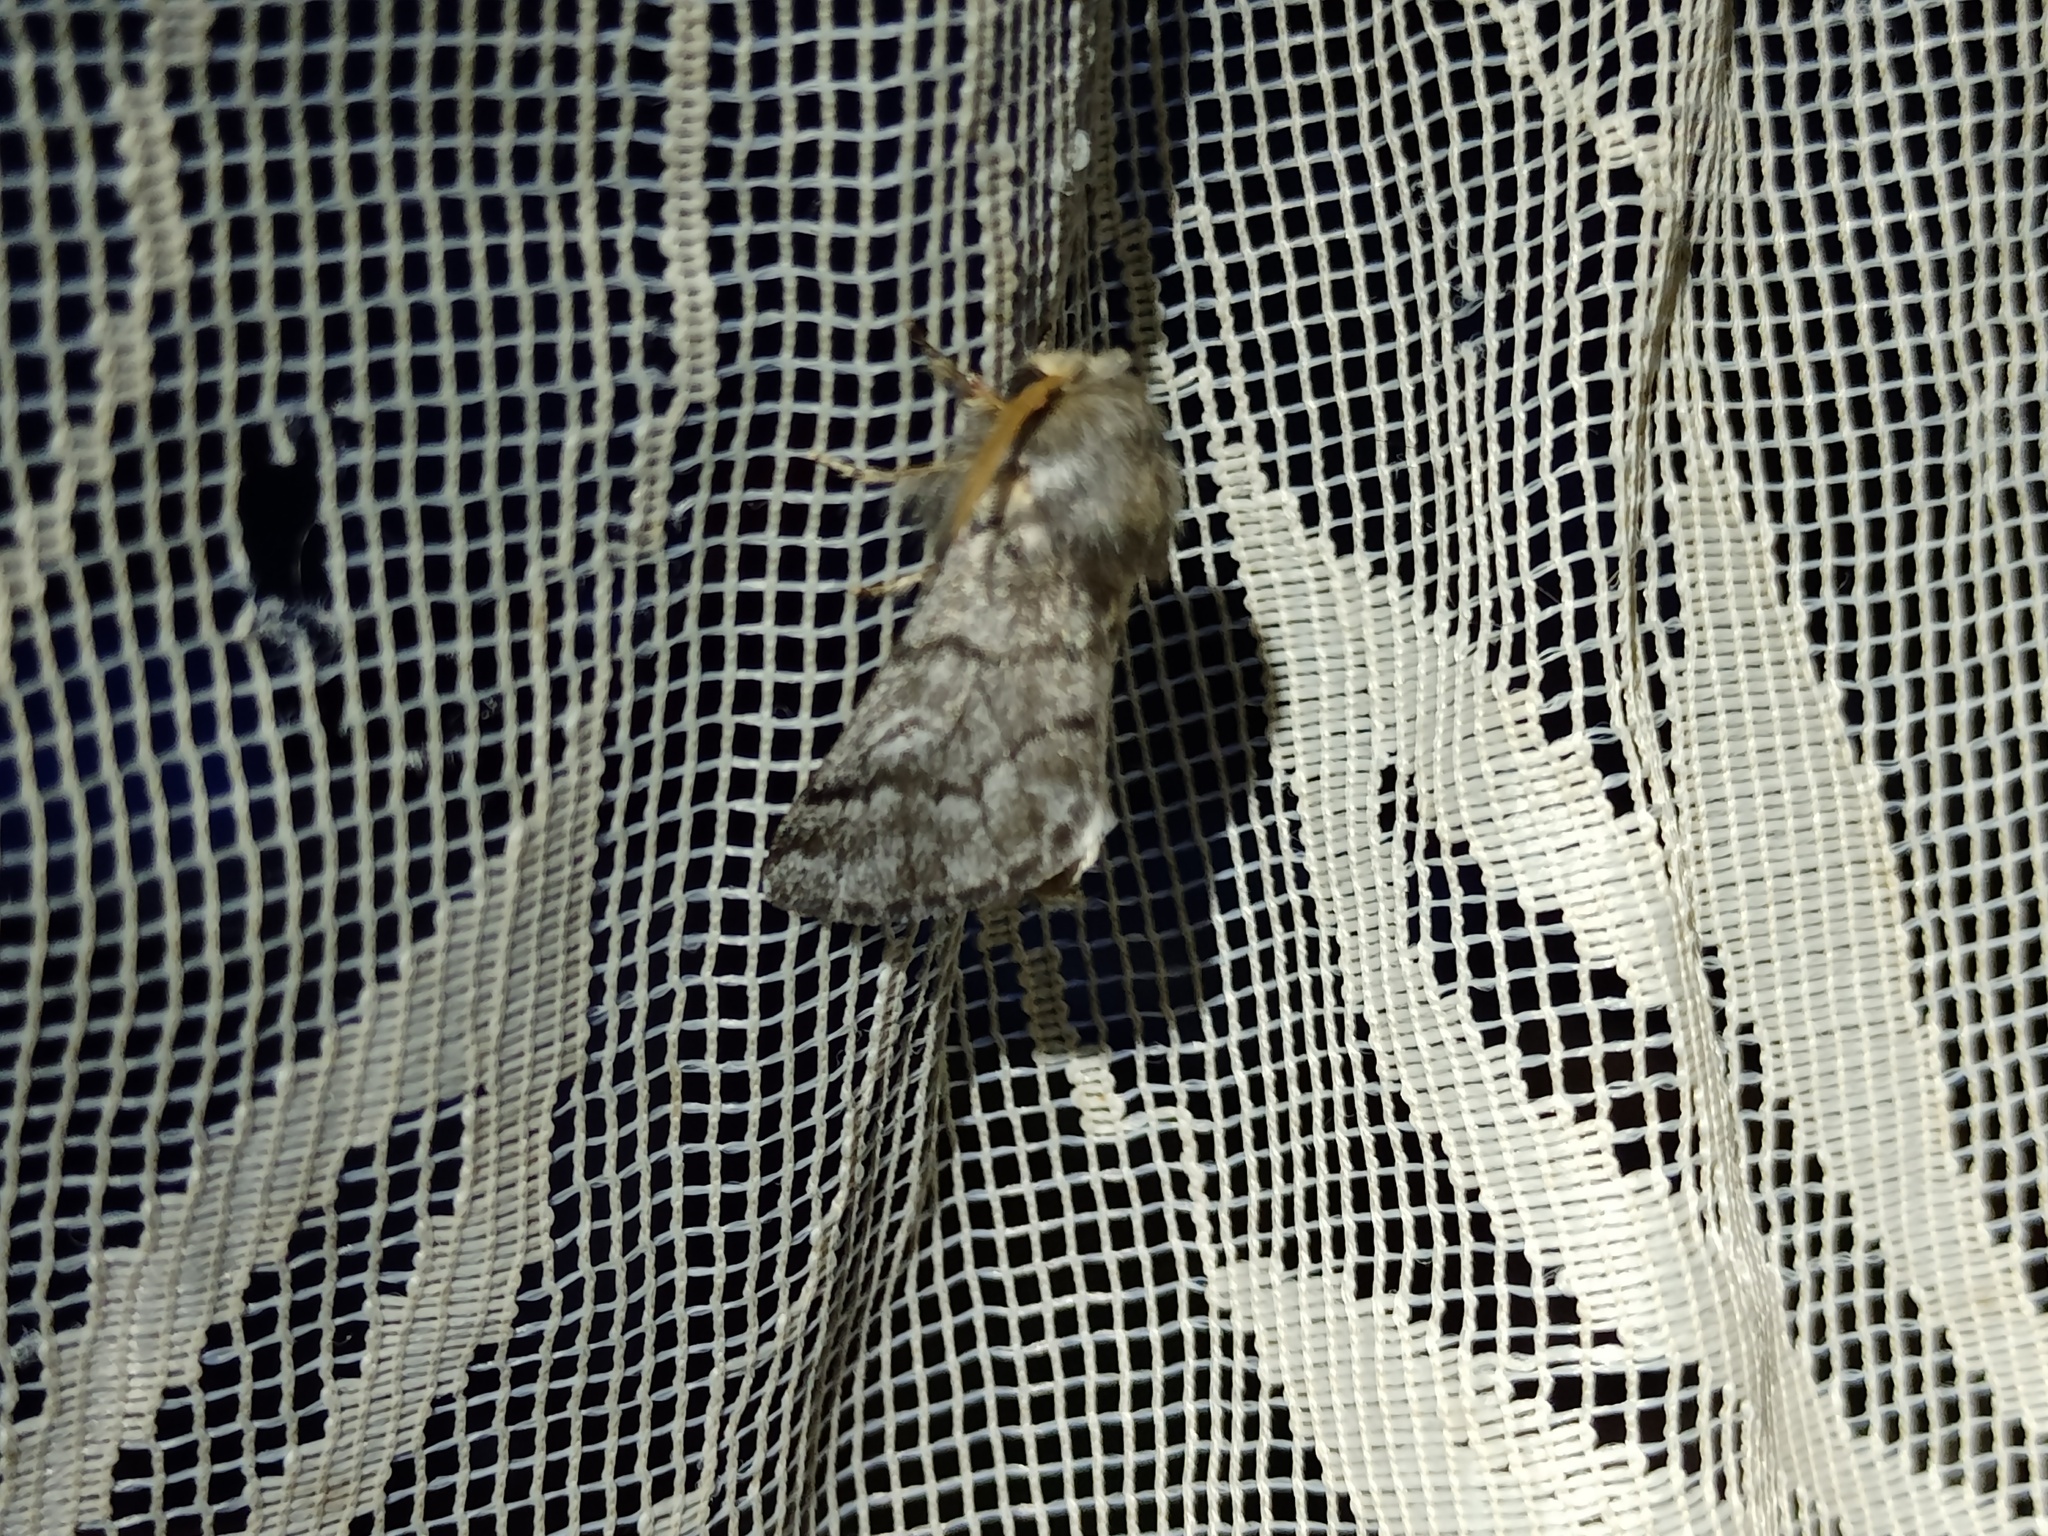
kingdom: Animalia
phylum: Arthropoda
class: Insecta
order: Lepidoptera
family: Notodontidae
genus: Thaumetopoea
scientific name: Thaumetopoea pityocampa
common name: Pine processionary
